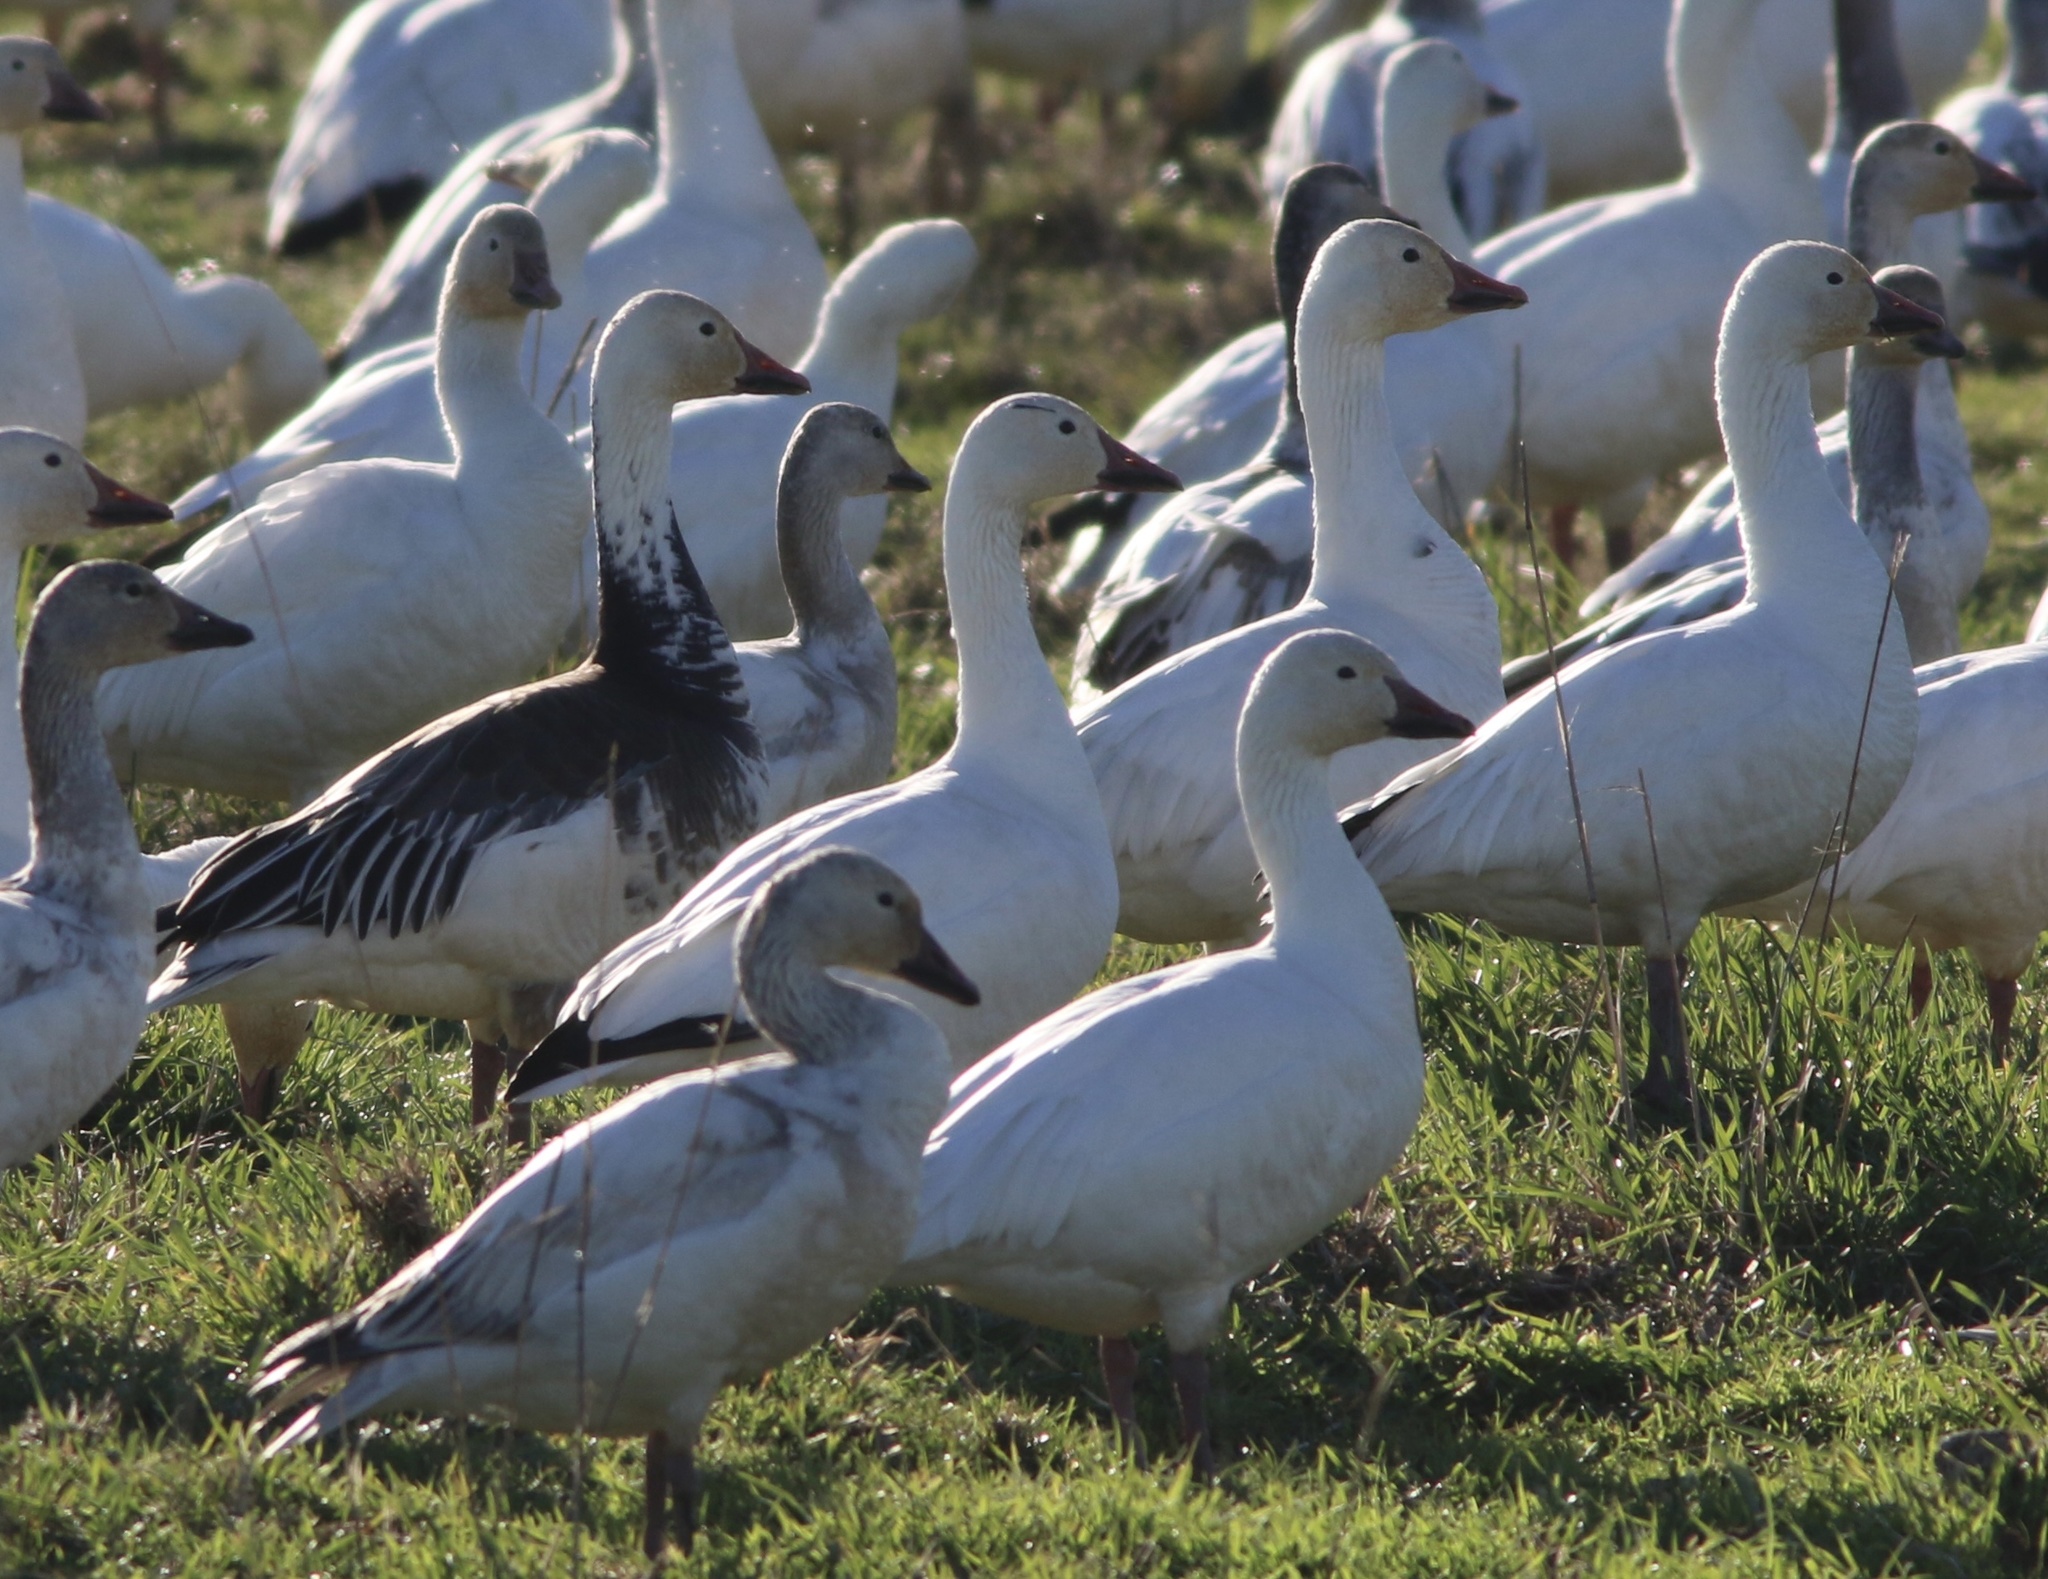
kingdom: Animalia
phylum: Chordata
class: Aves
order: Anseriformes
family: Anatidae
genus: Anser
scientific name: Anser caerulescens
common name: Snow goose
